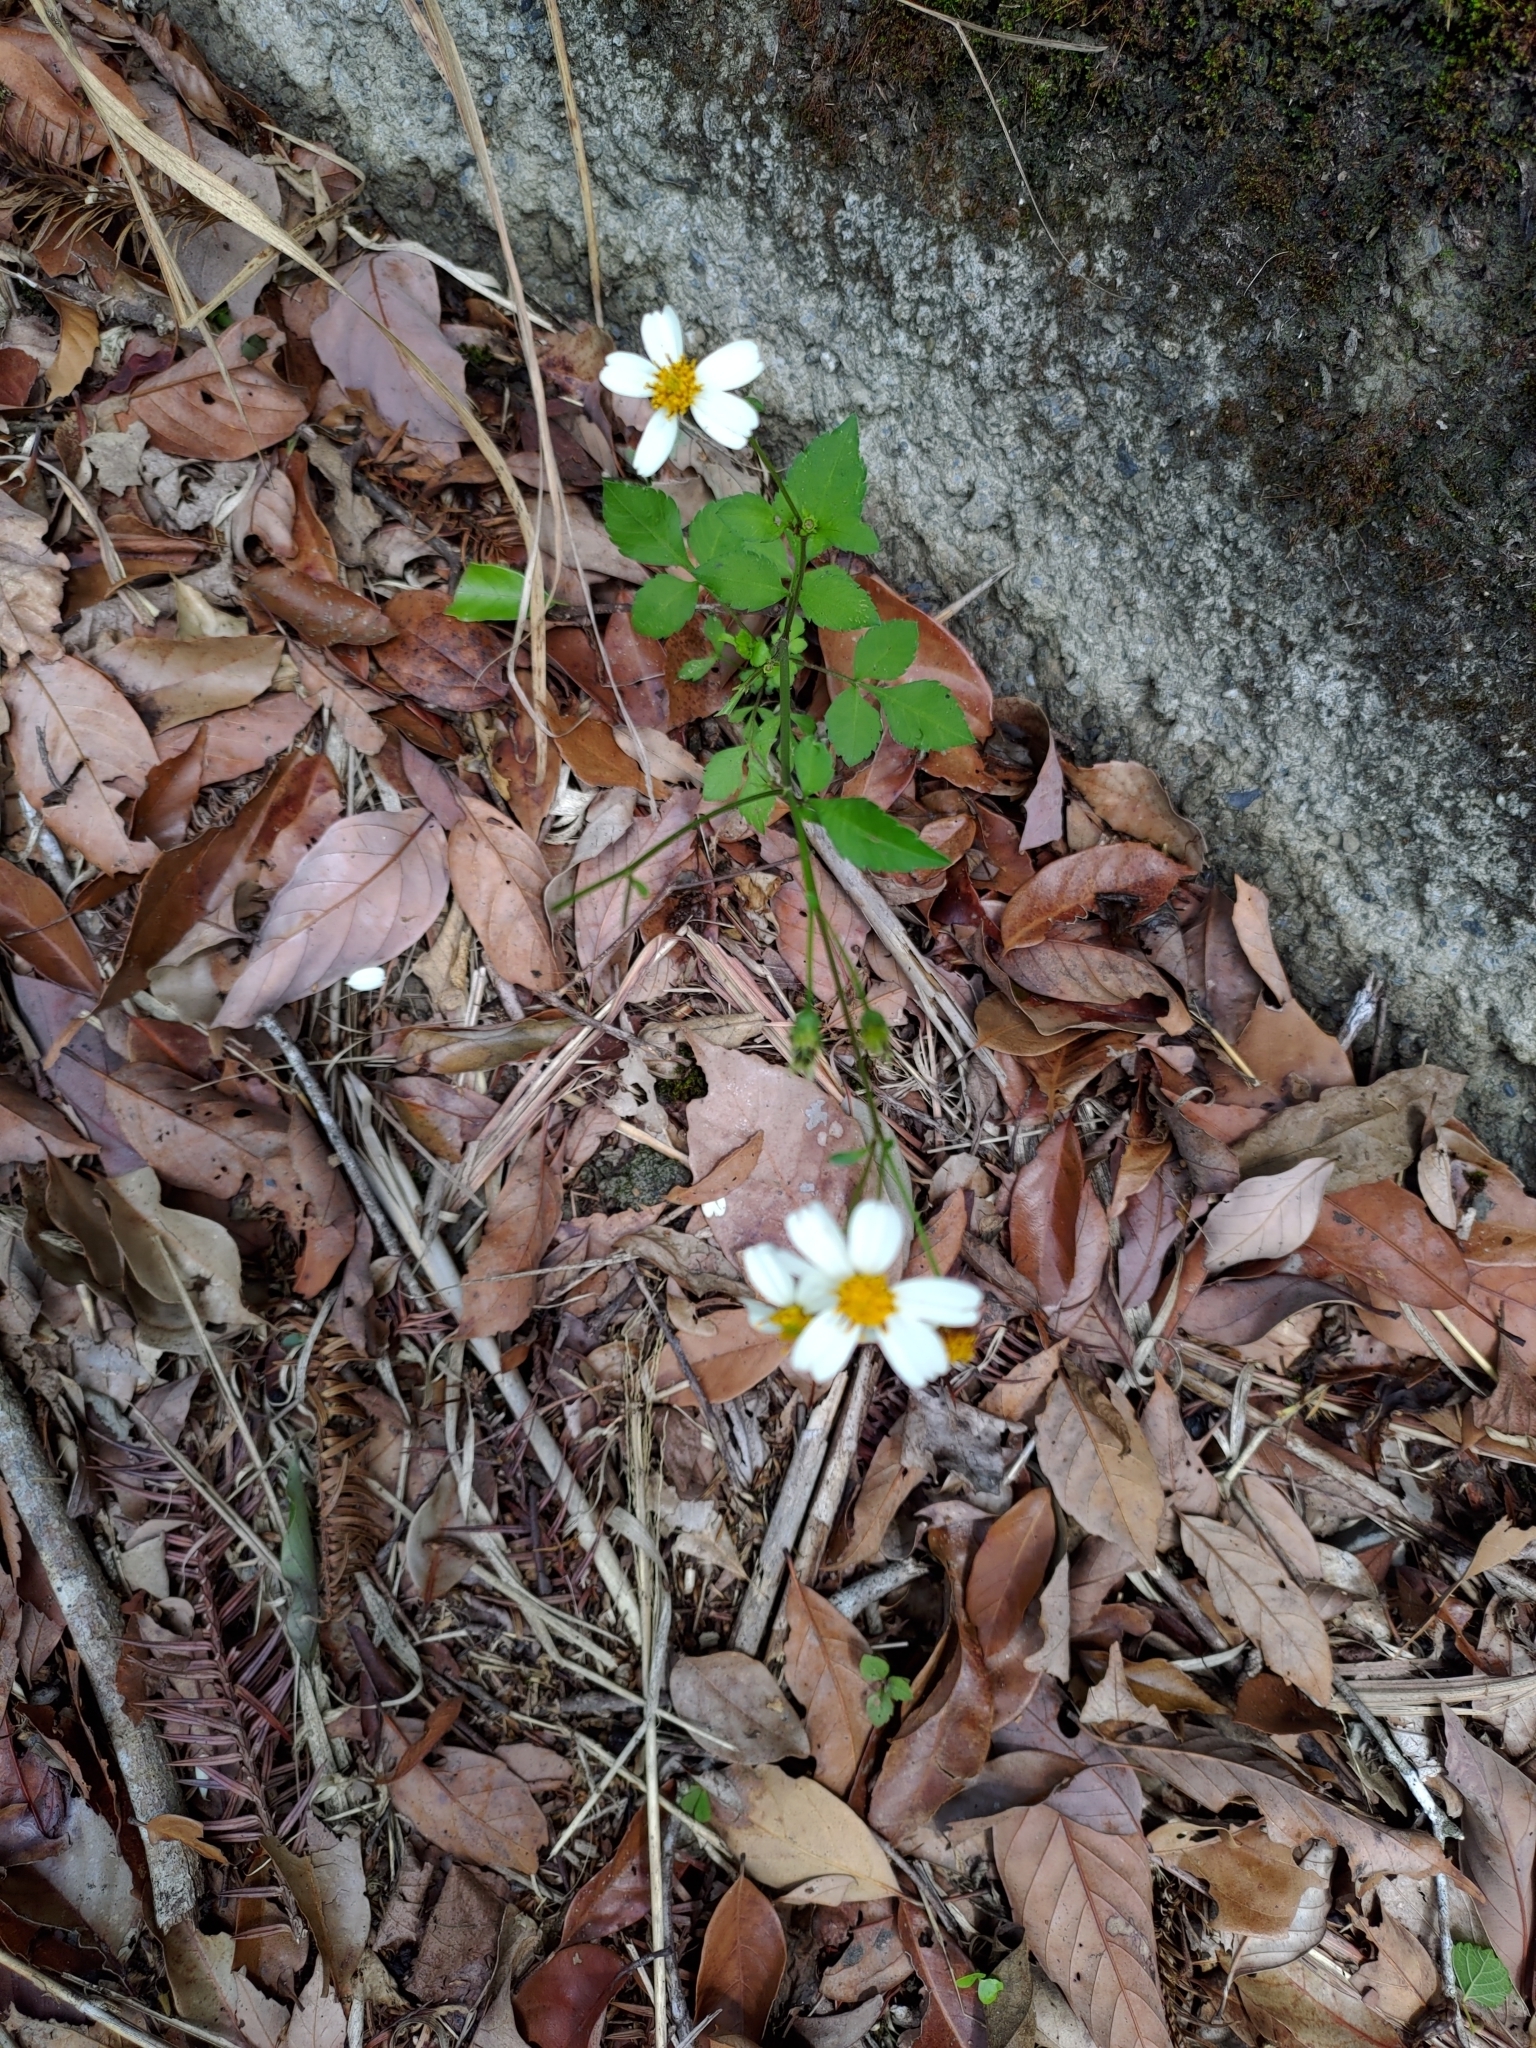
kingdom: Plantae
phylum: Tracheophyta
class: Magnoliopsida
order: Asterales
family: Asteraceae
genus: Bidens
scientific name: Bidens alba
